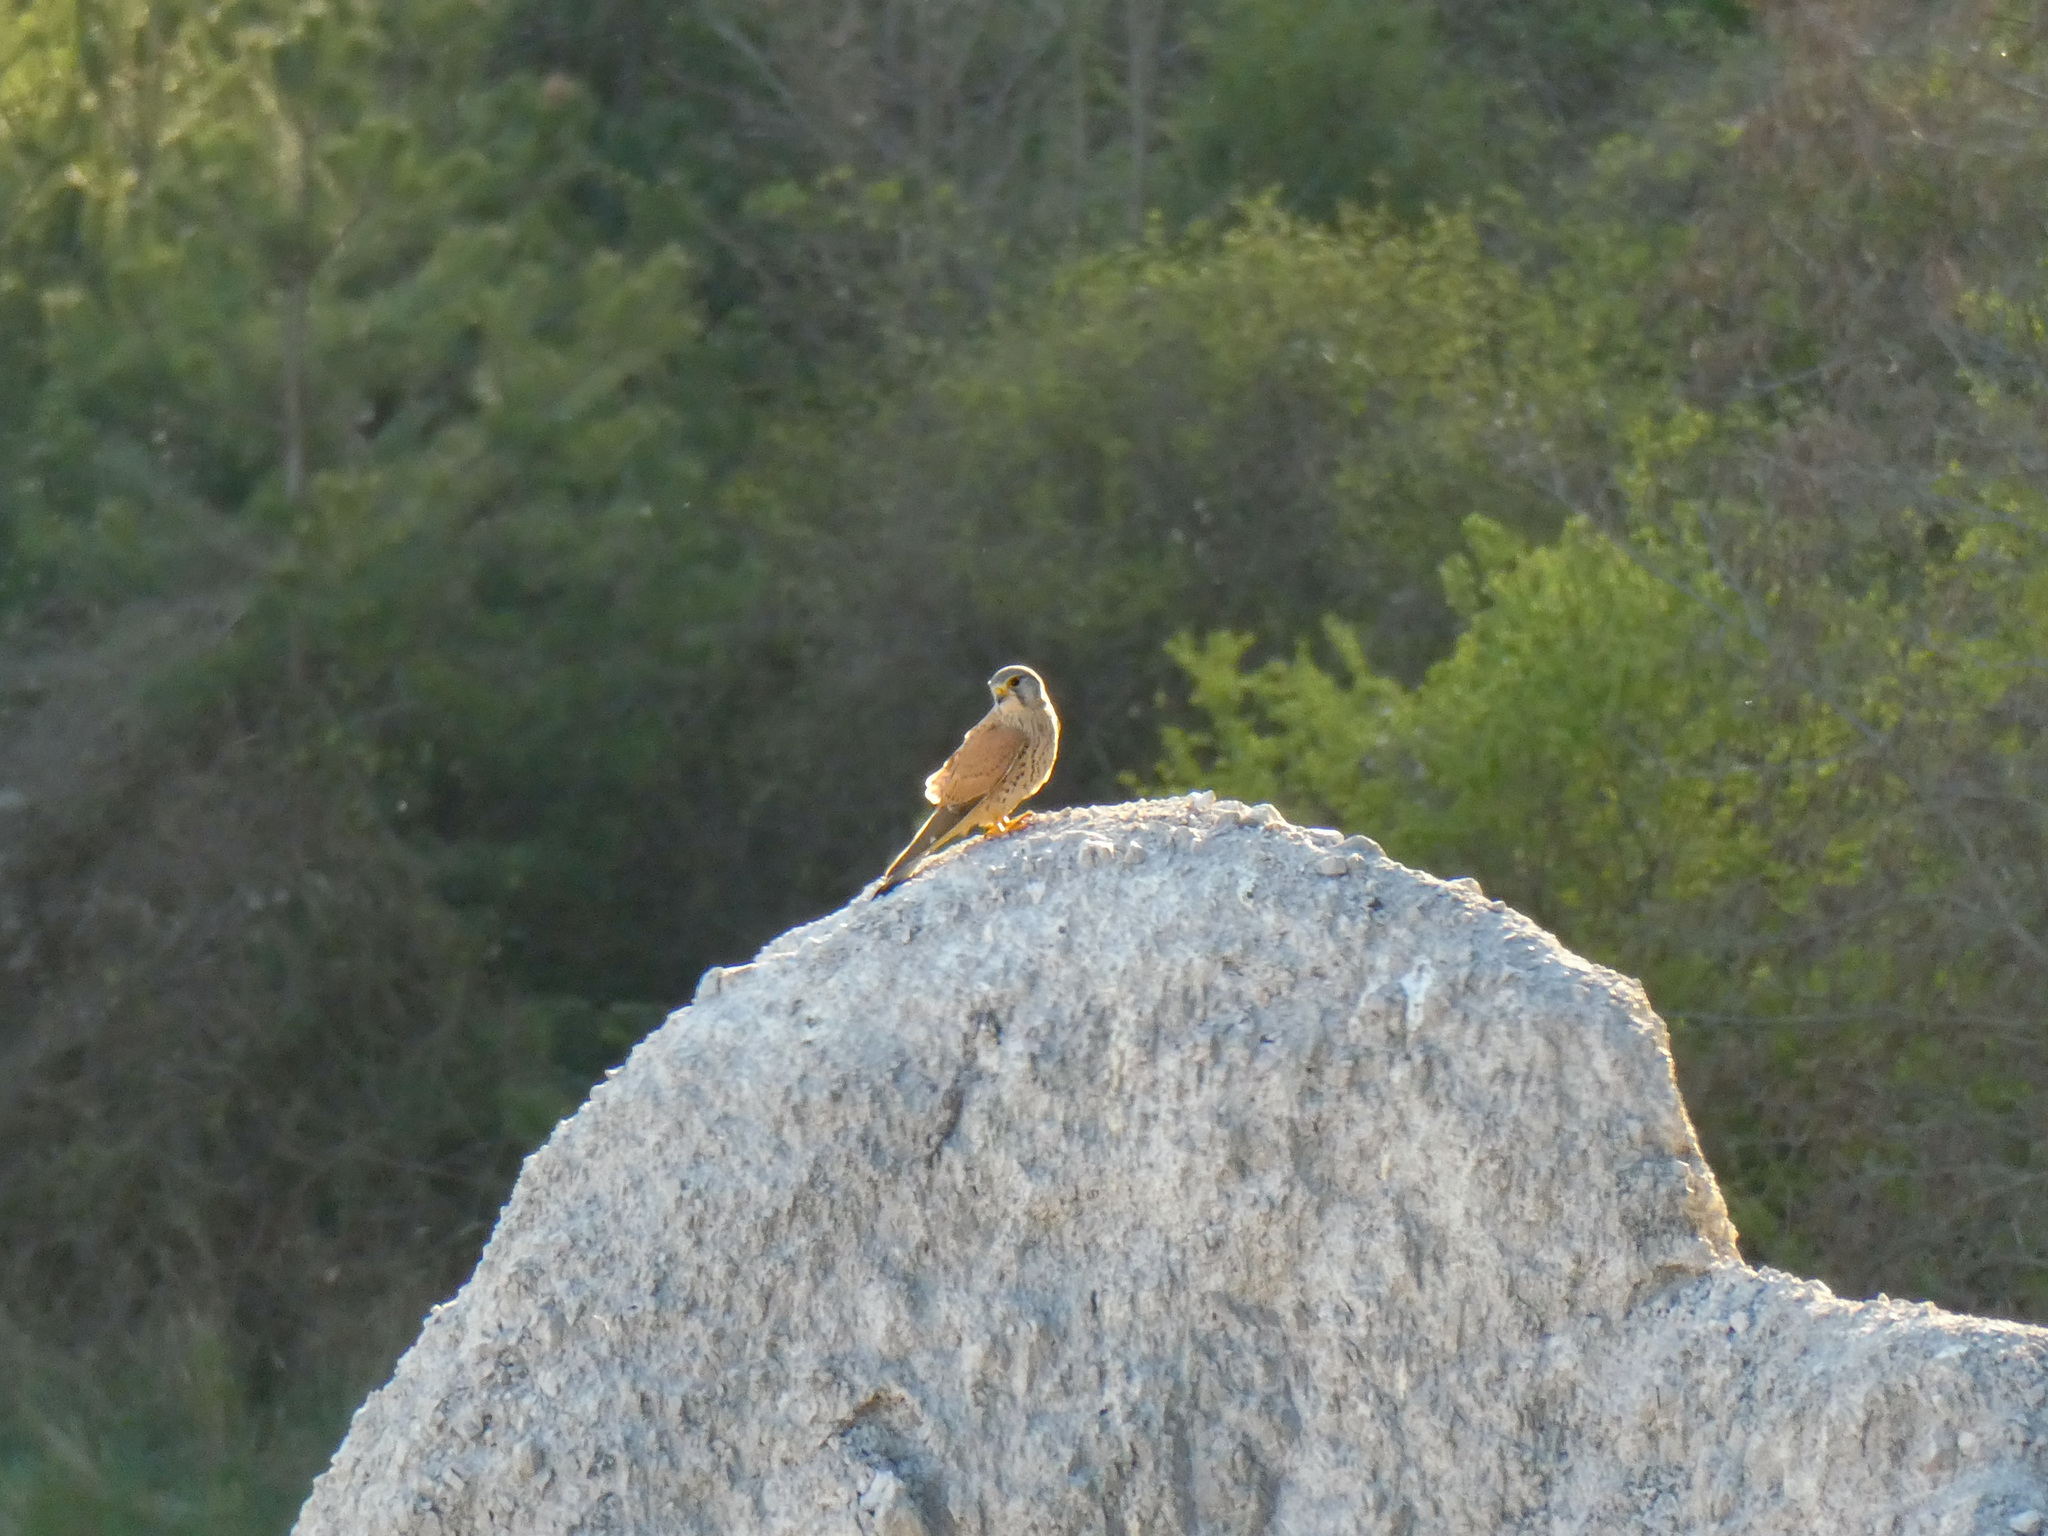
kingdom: Animalia
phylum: Chordata
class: Aves
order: Falconiformes
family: Falconidae
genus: Falco
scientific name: Falco tinnunculus
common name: Common kestrel
